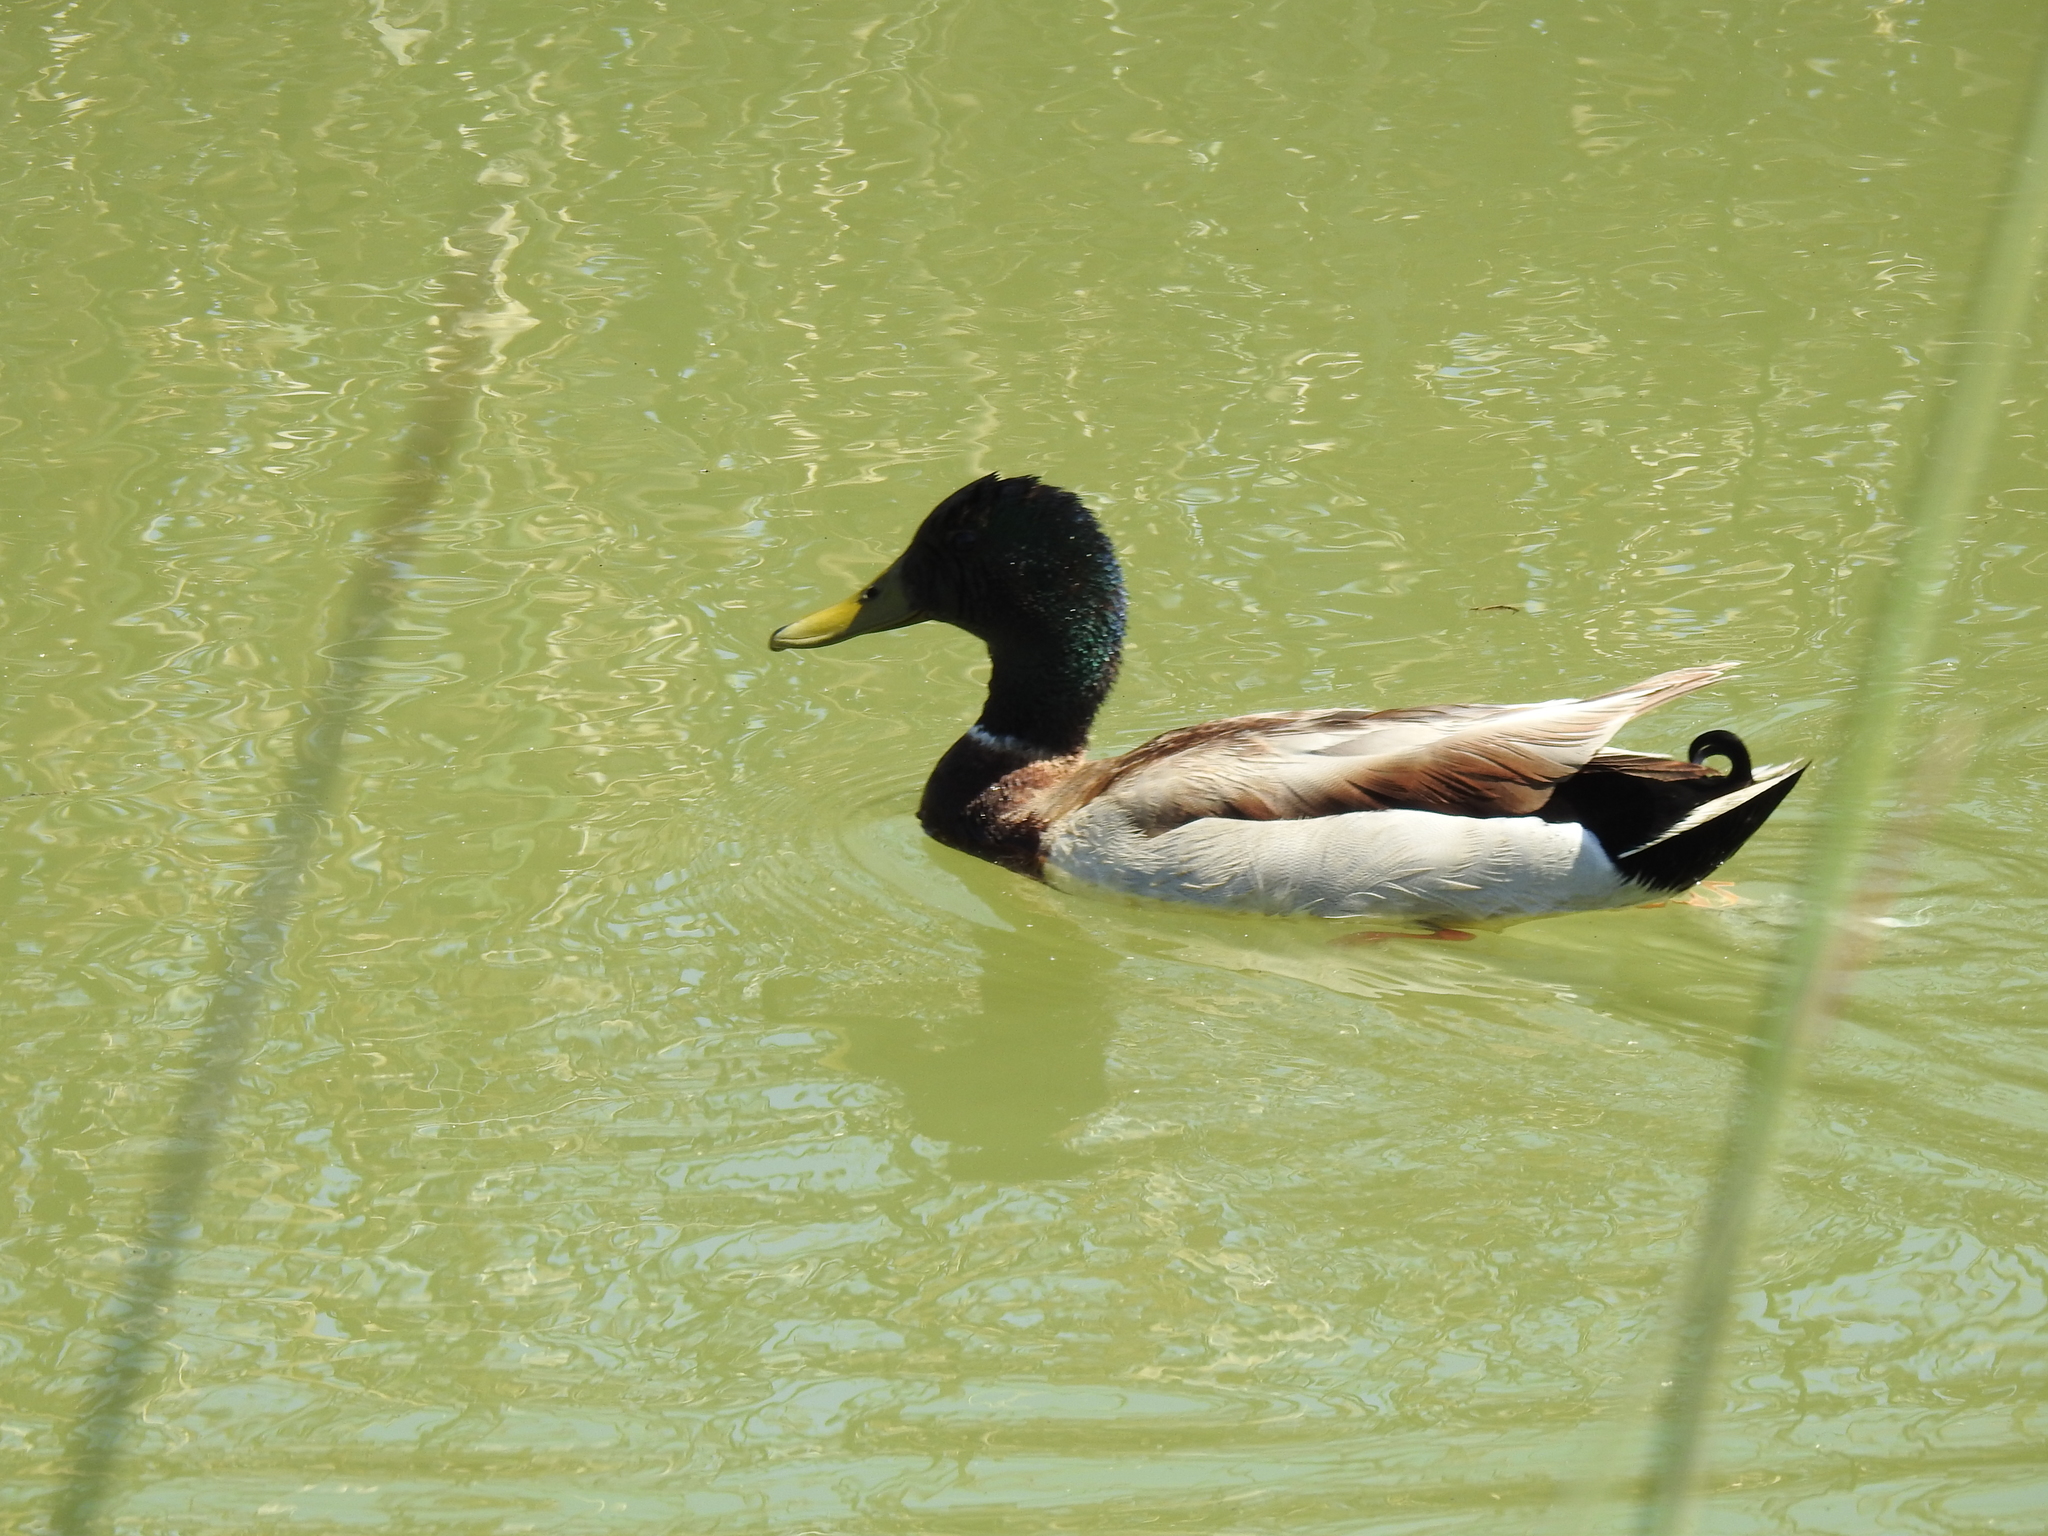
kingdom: Animalia
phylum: Chordata
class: Aves
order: Anseriformes
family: Anatidae
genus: Anas
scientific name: Anas platyrhynchos
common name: Mallard
